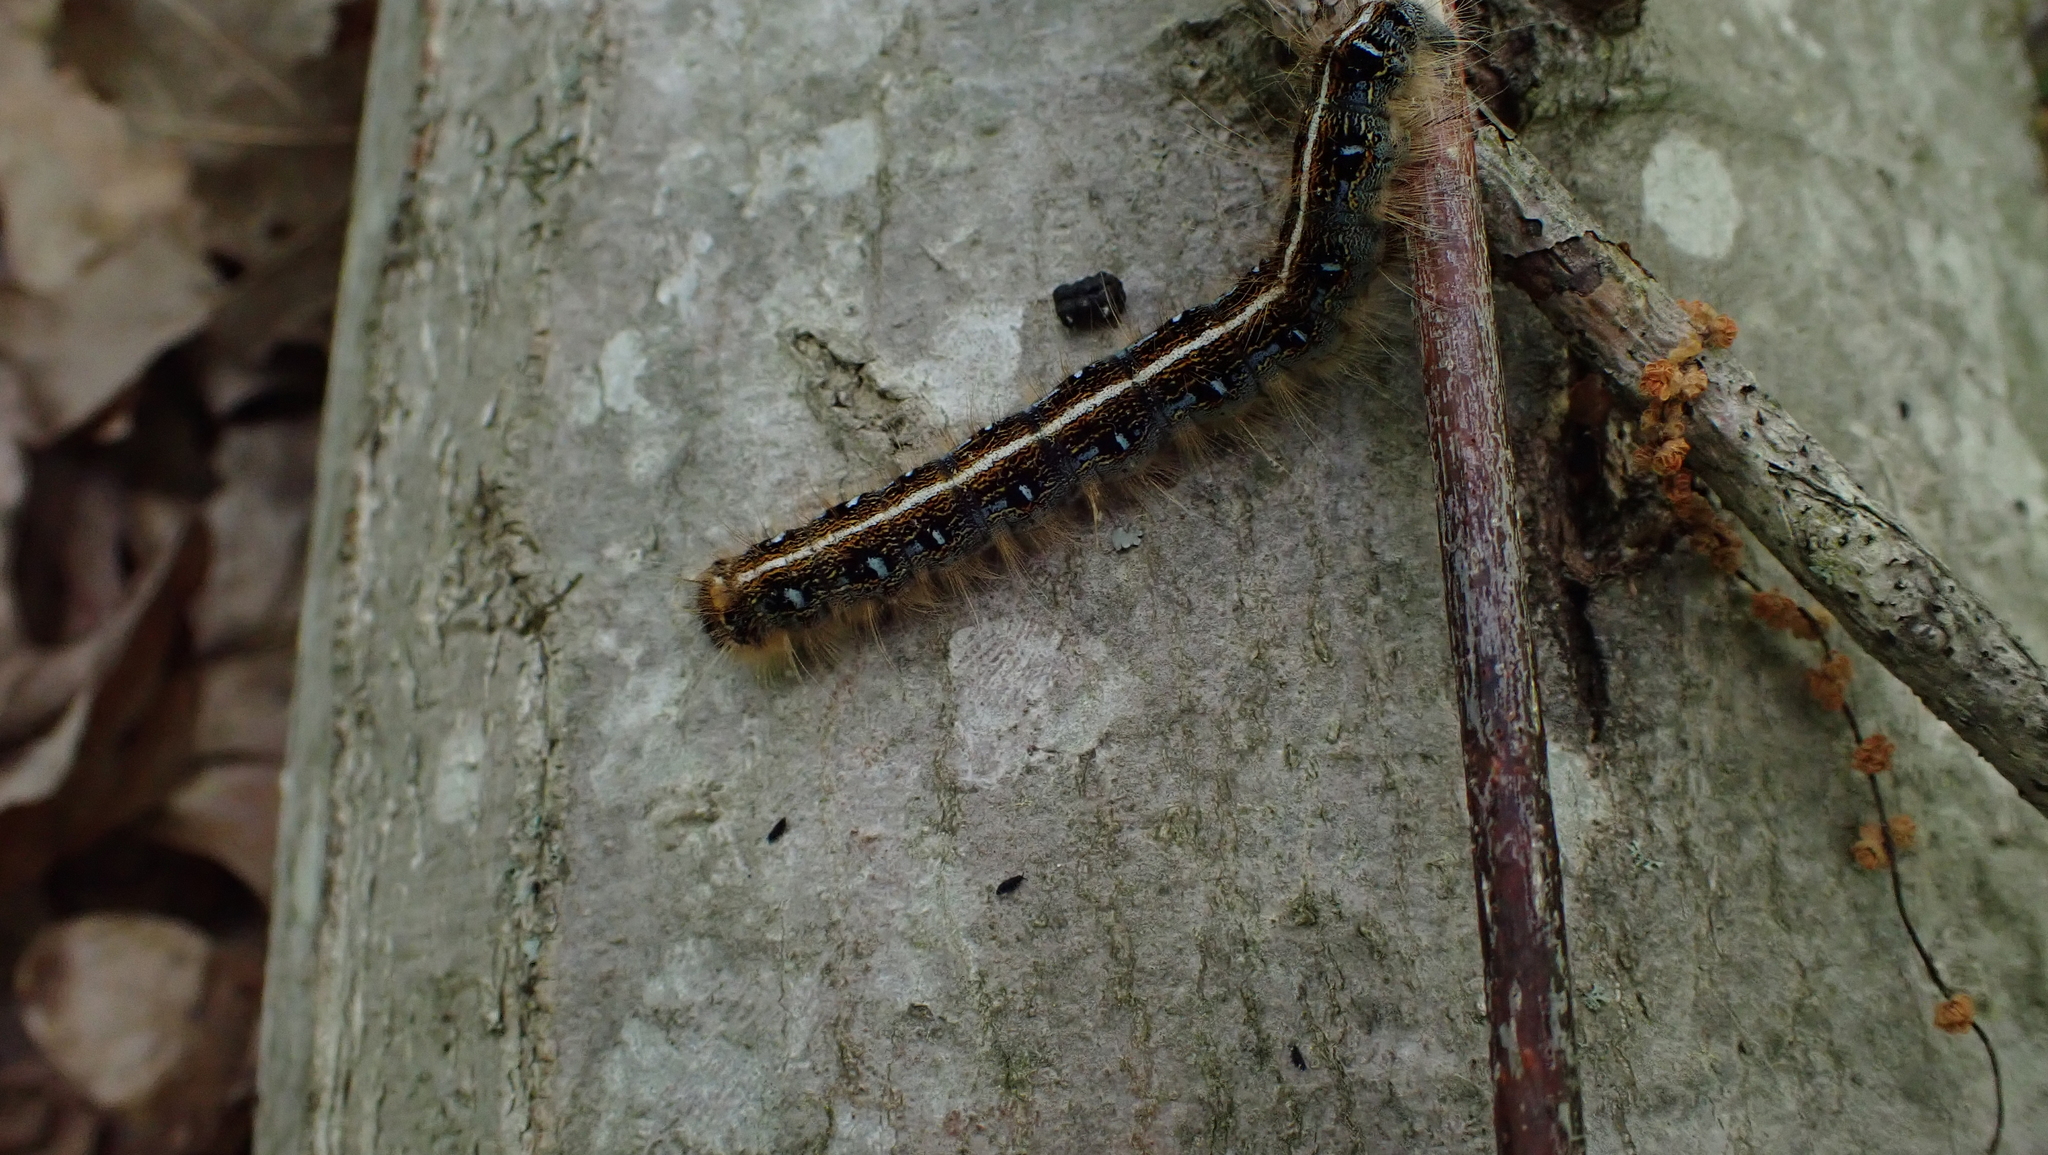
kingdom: Animalia
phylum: Arthropoda
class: Insecta
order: Lepidoptera
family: Lasiocampidae
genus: Malacosoma
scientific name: Malacosoma americana
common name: Eastern tent caterpillar moth
